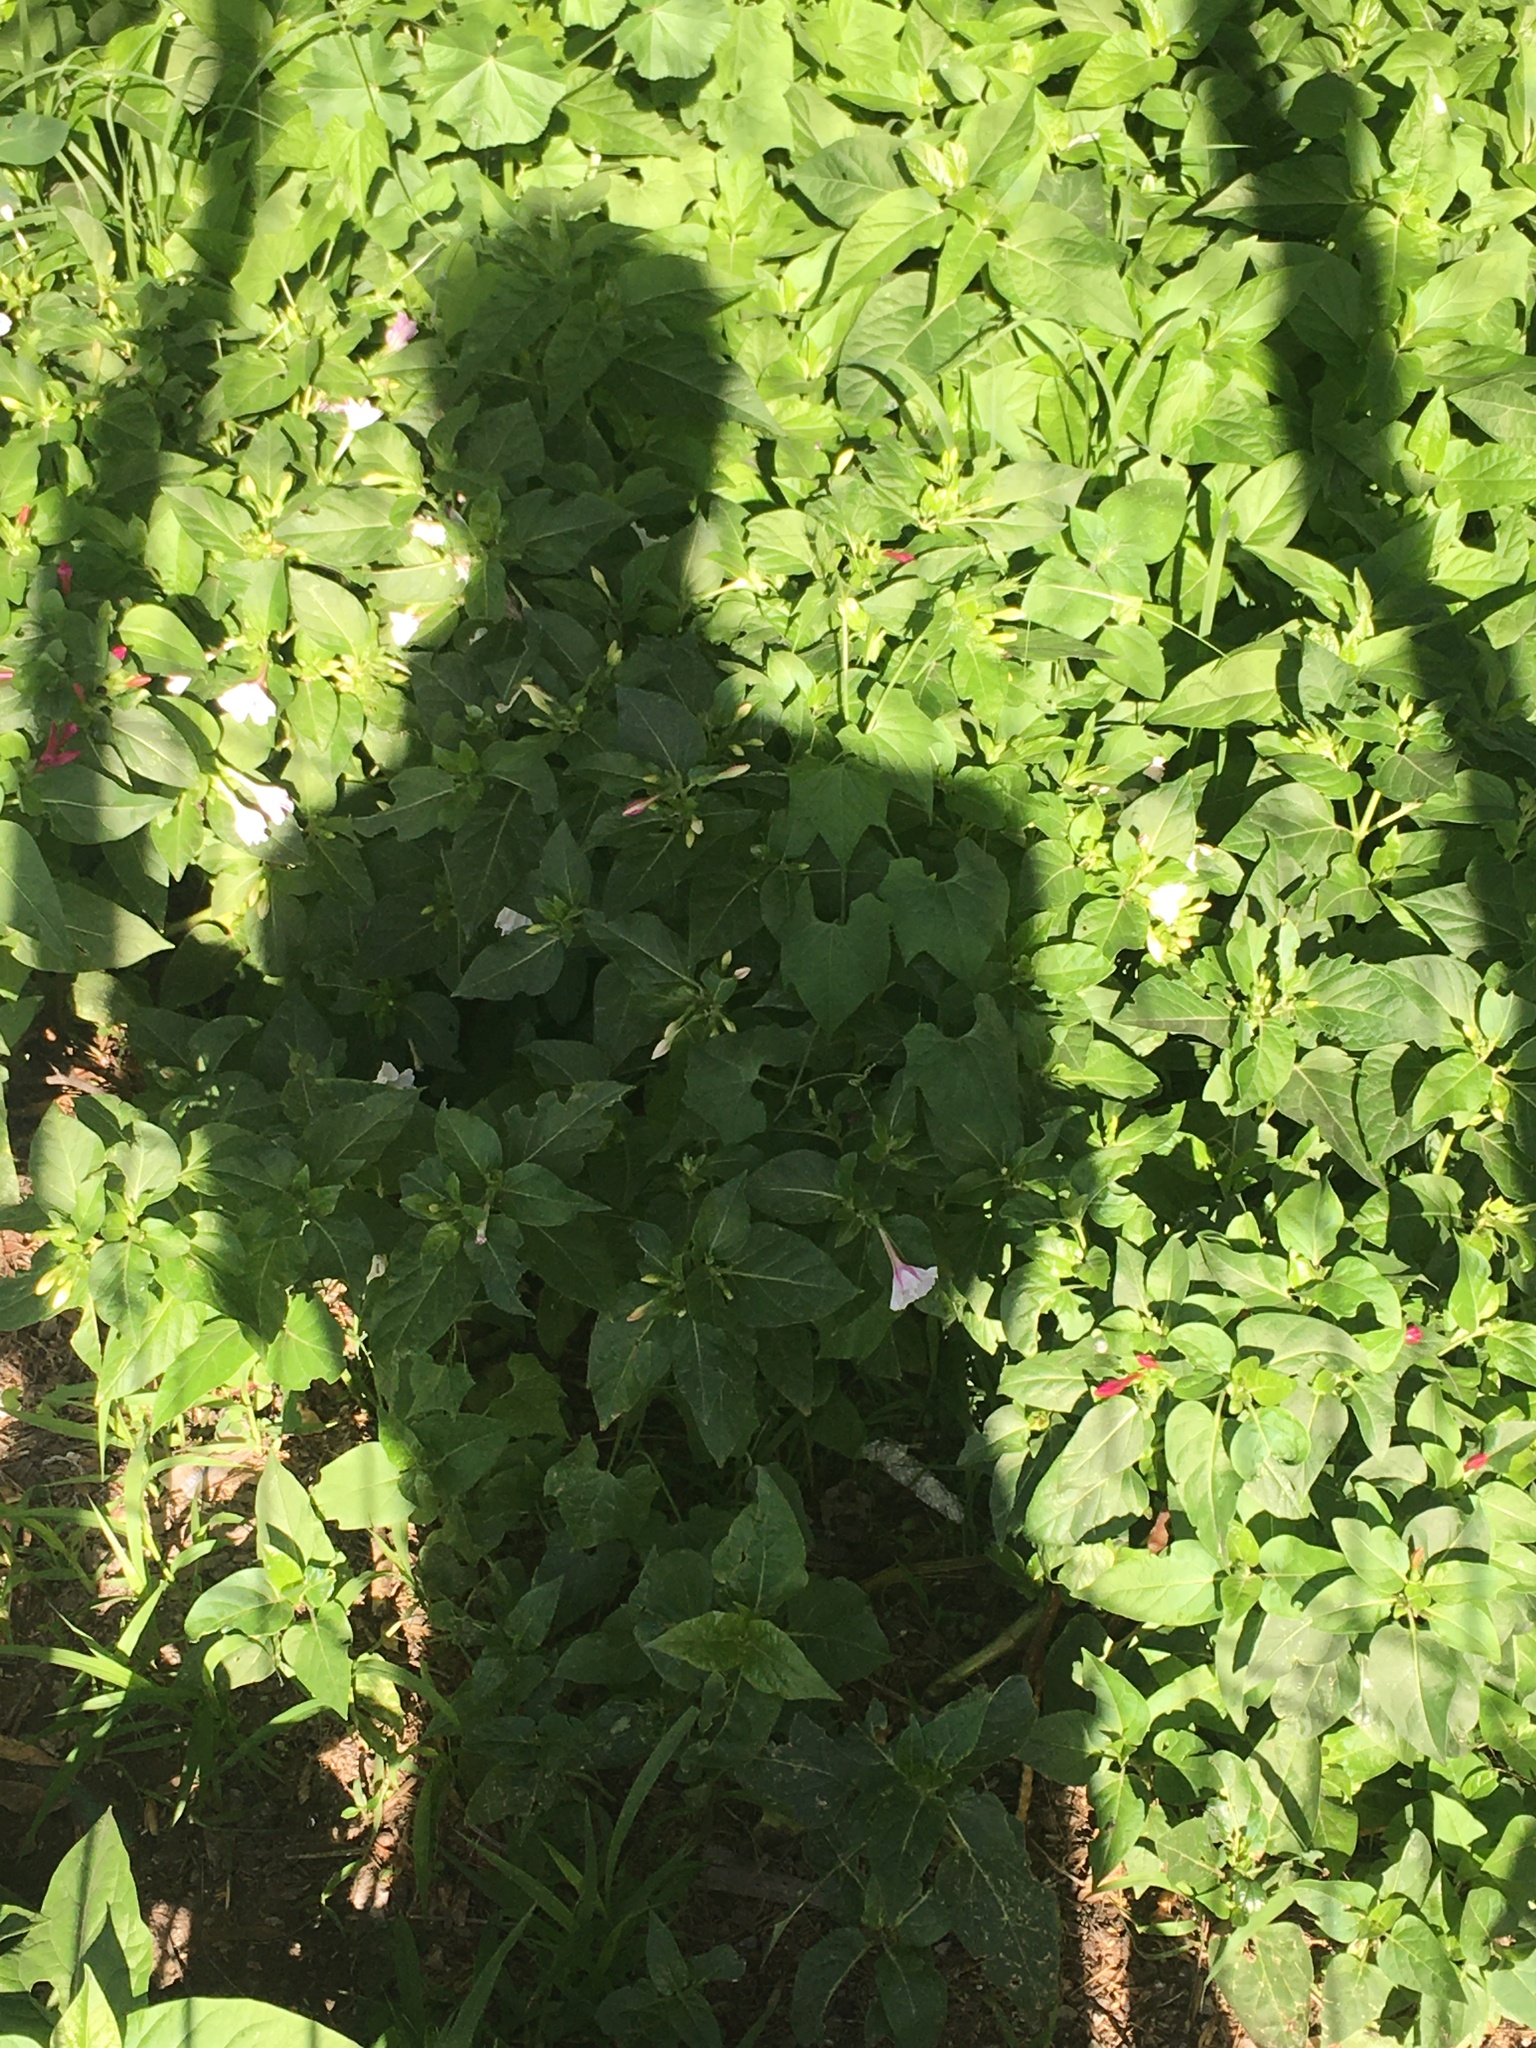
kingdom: Plantae
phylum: Tracheophyta
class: Magnoliopsida
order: Caryophyllales
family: Nyctaginaceae
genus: Mirabilis
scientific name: Mirabilis jalapa
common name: Marvel-of-peru
